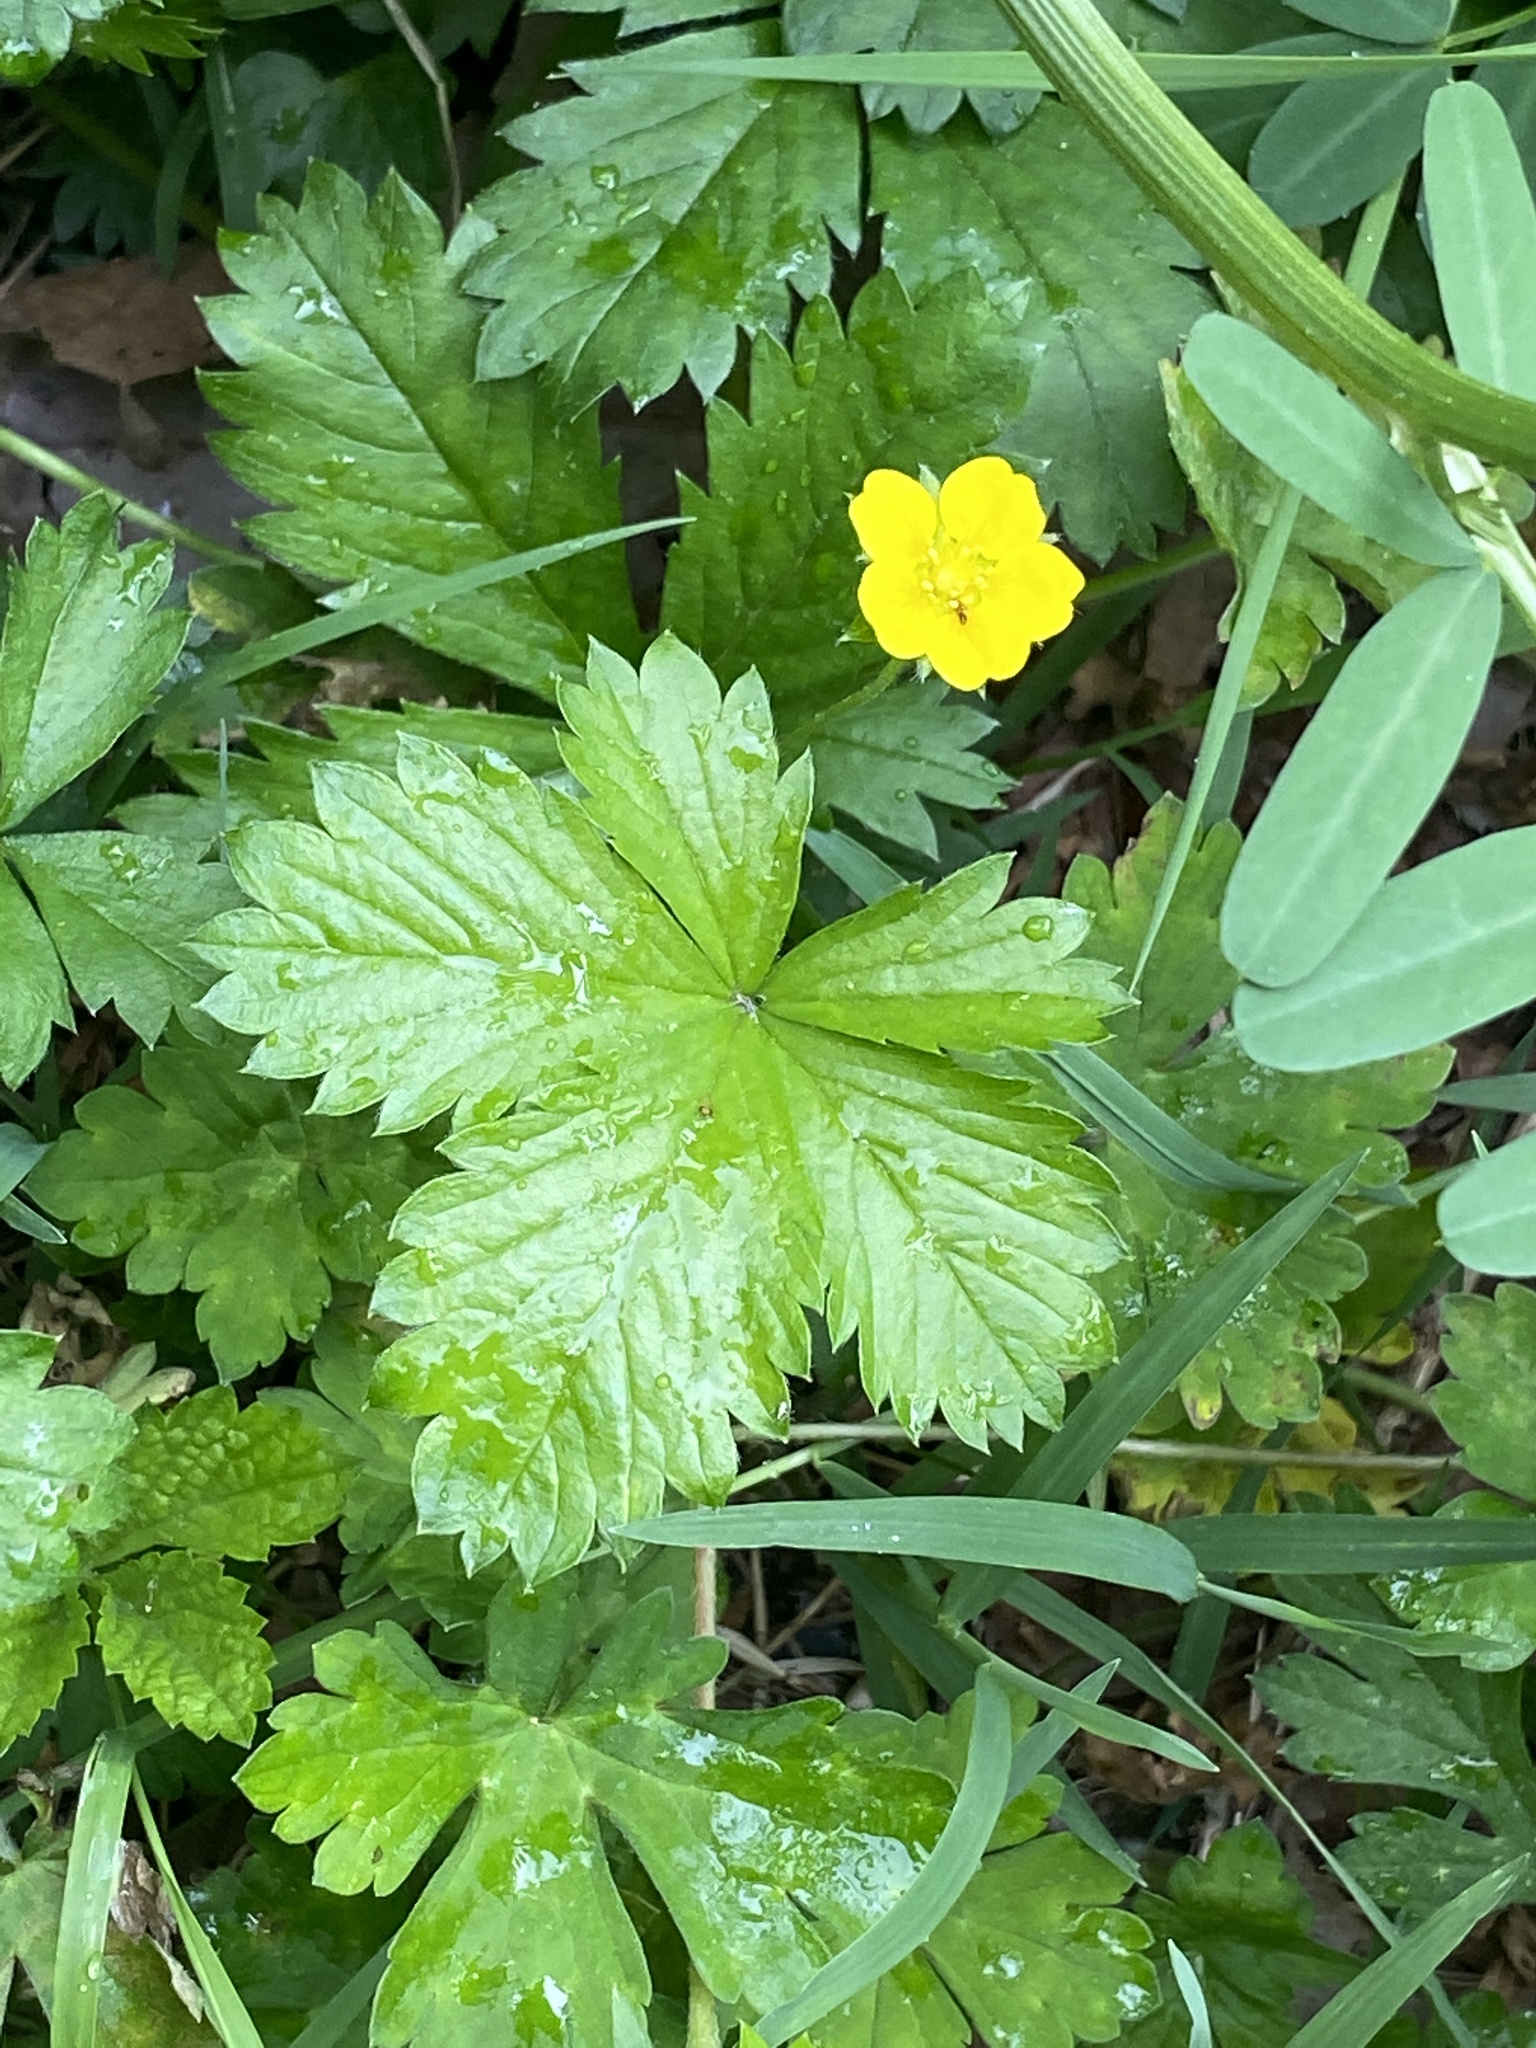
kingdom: Plantae
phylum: Tracheophyta
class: Magnoliopsida
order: Rosales
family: Rosaceae
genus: Potentilla
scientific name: Potentilla canadensis
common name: Canada cinquefoil
